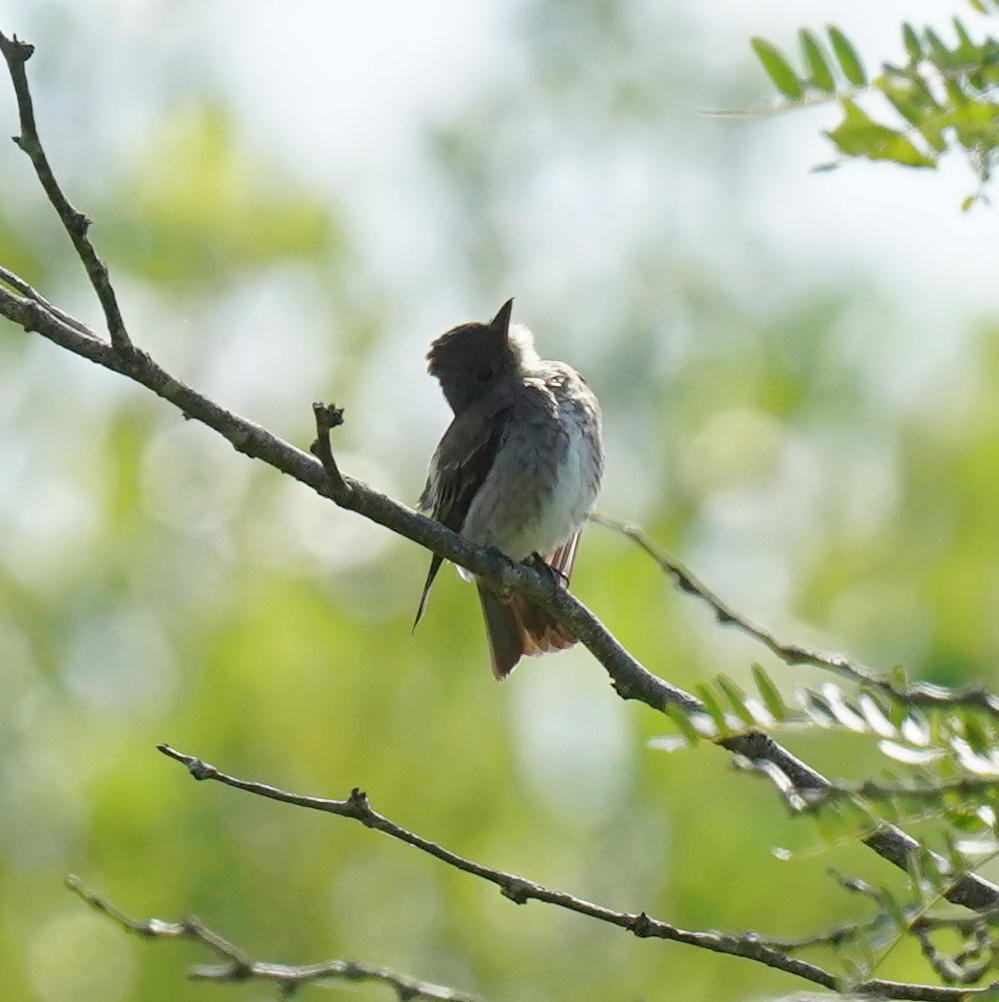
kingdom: Animalia
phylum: Chordata
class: Aves
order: Passeriformes
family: Tyrannidae
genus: Contopus
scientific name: Contopus cooperi
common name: Olive-sided flycatcher
